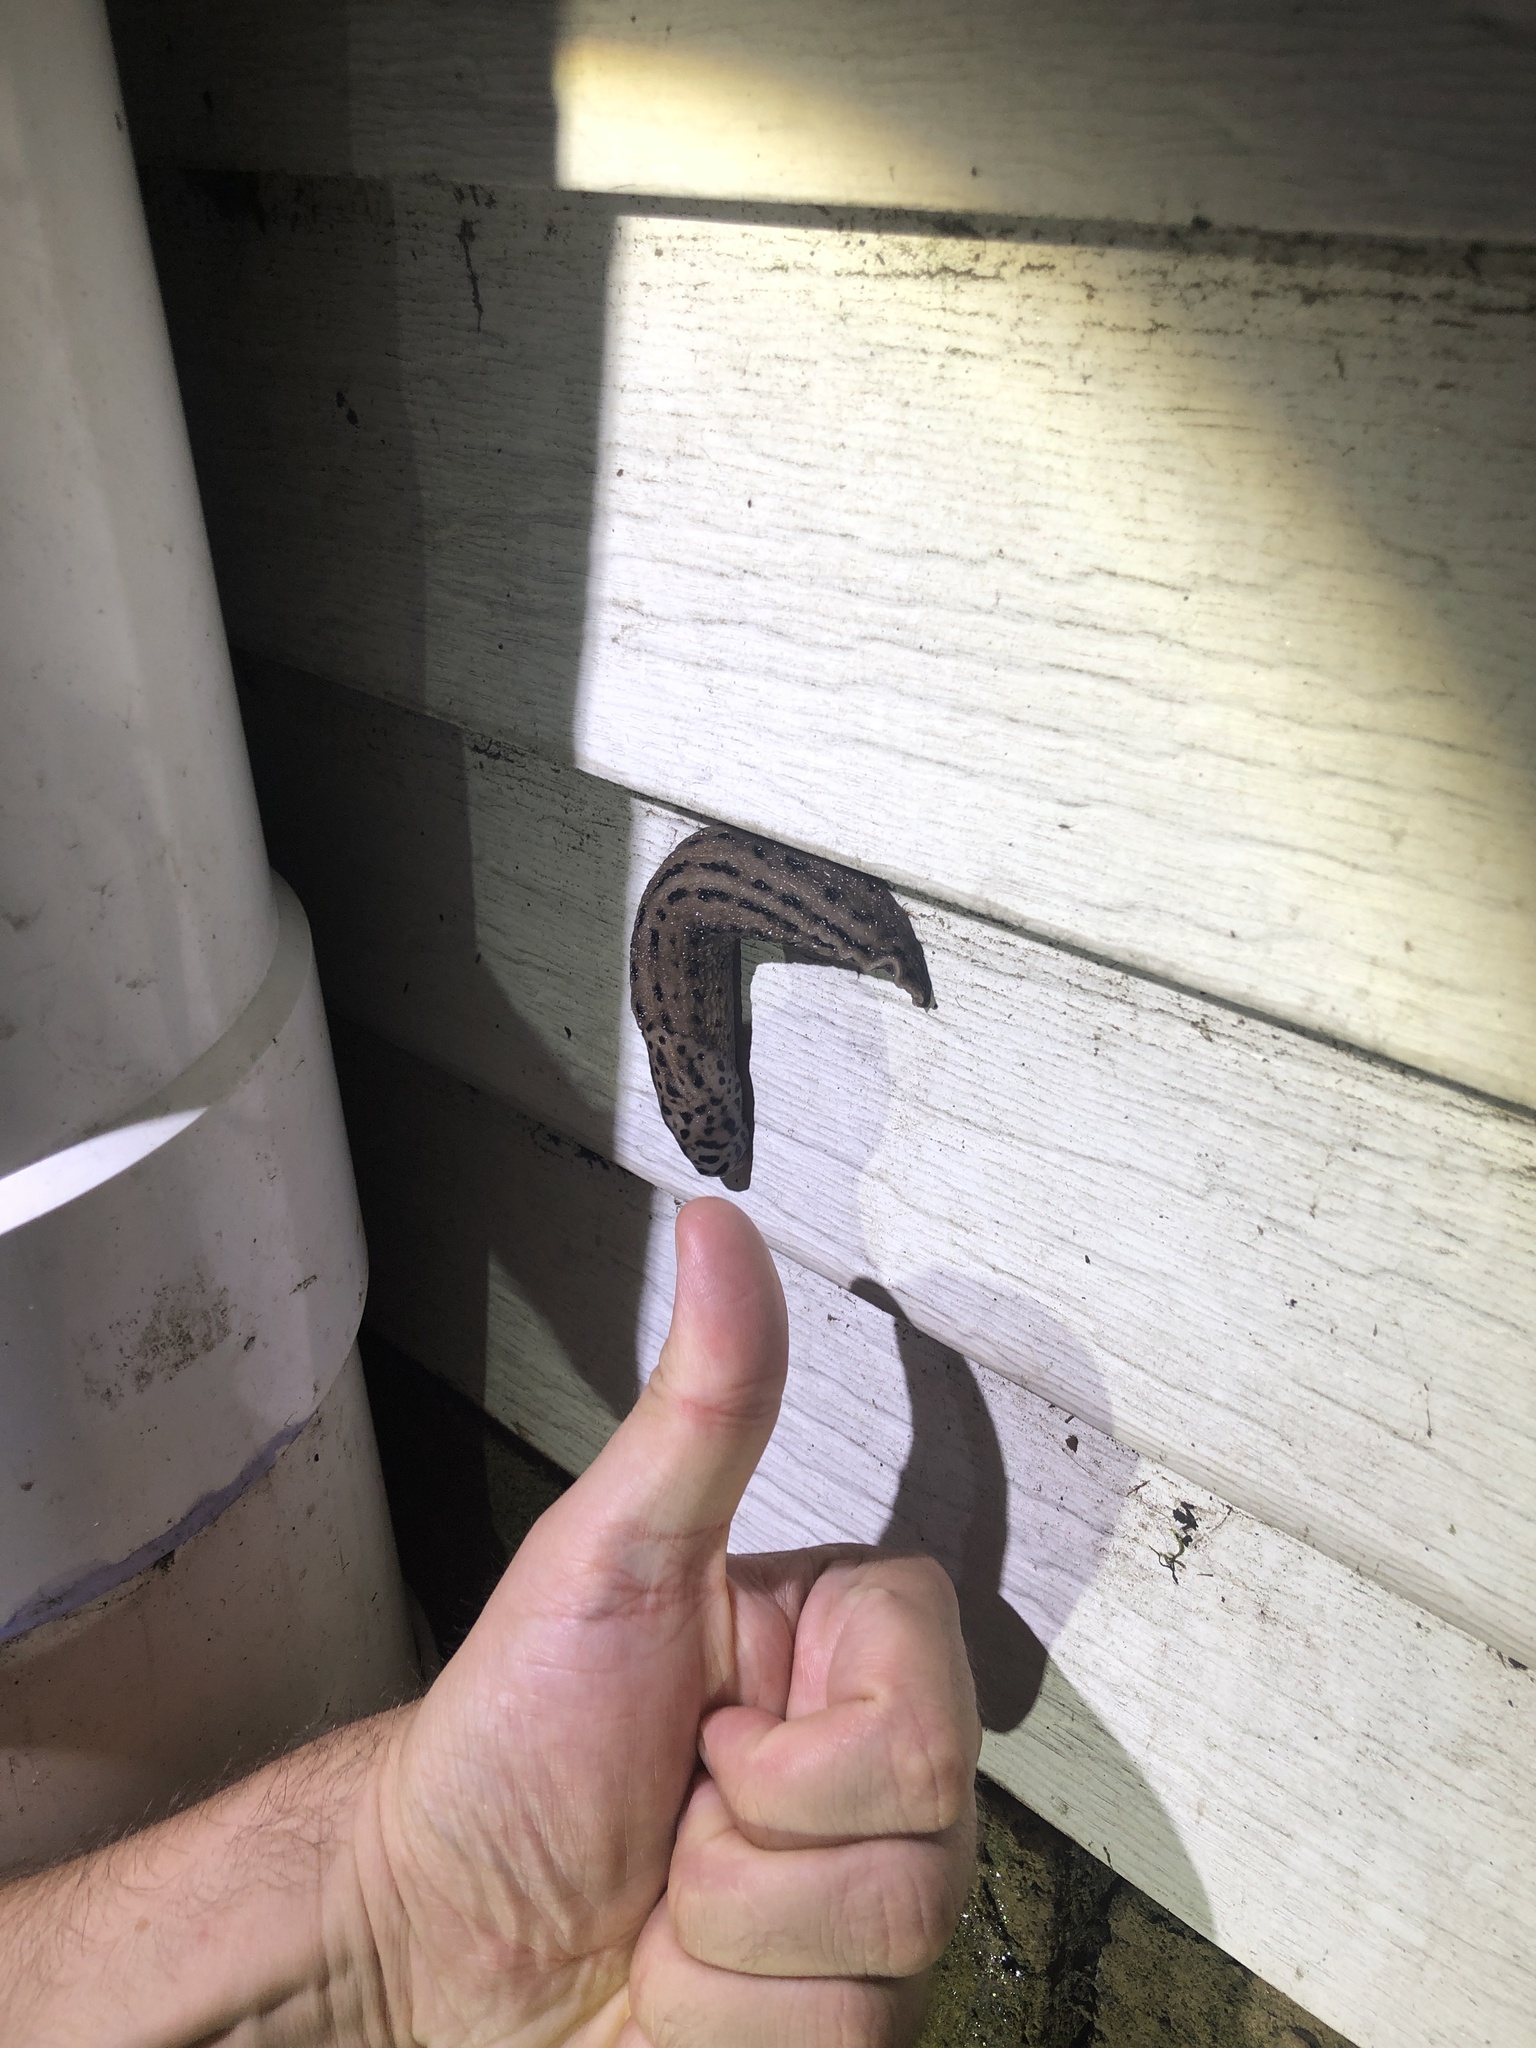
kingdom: Animalia
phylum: Mollusca
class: Gastropoda
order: Stylommatophora
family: Limacidae
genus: Limax
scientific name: Limax maximus
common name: Great grey slug
